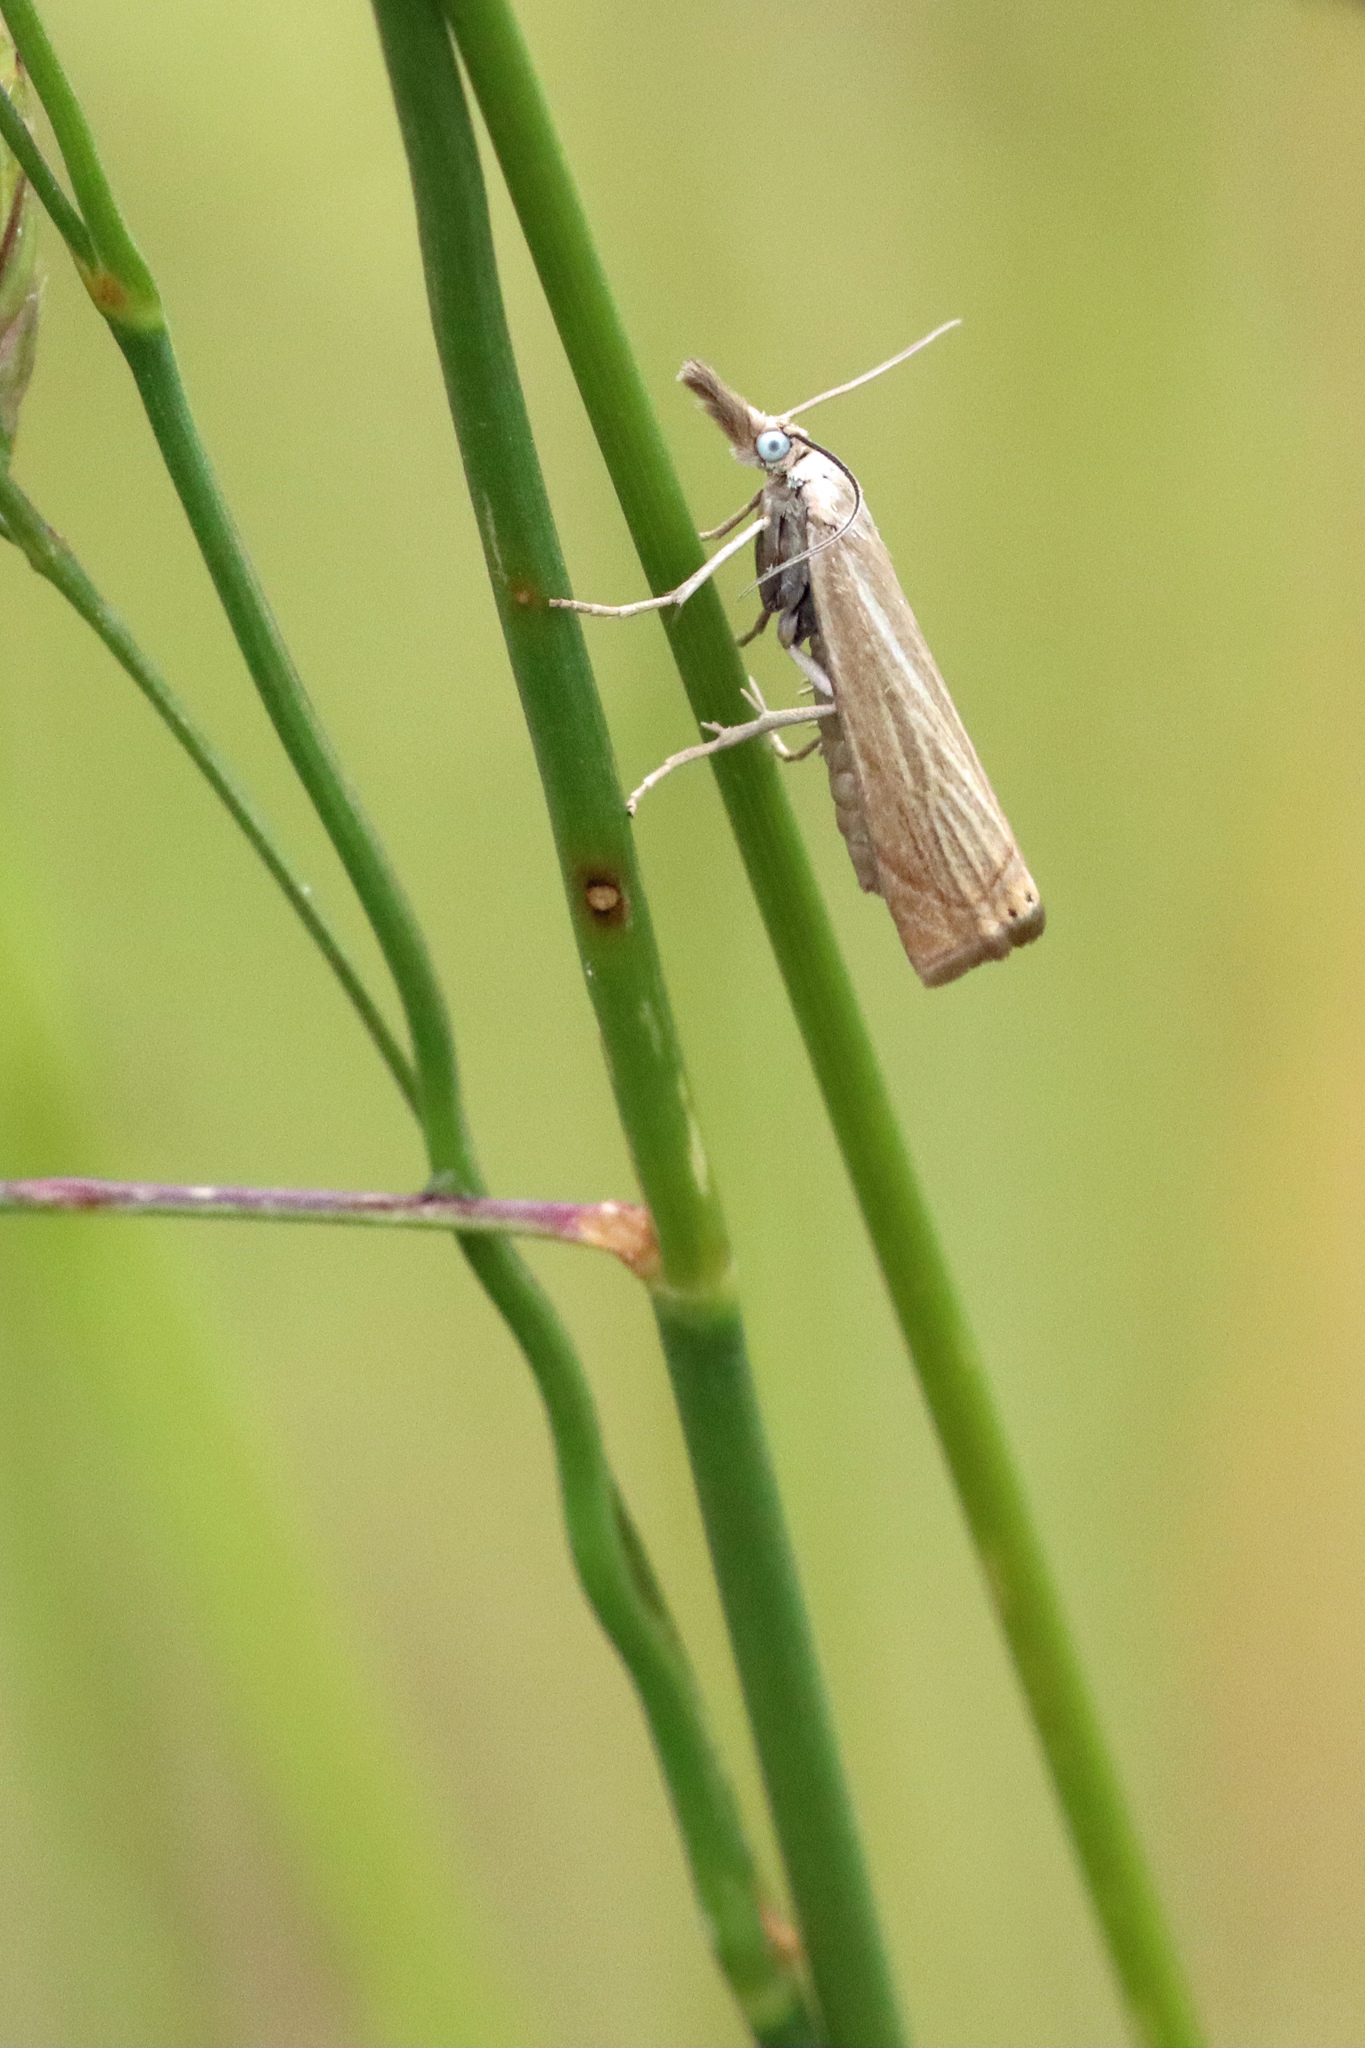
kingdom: Animalia
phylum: Arthropoda
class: Insecta
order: Lepidoptera
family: Crambidae
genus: Chrysoteuchia
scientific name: Chrysoteuchia culmella
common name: Garden grass-veneer
